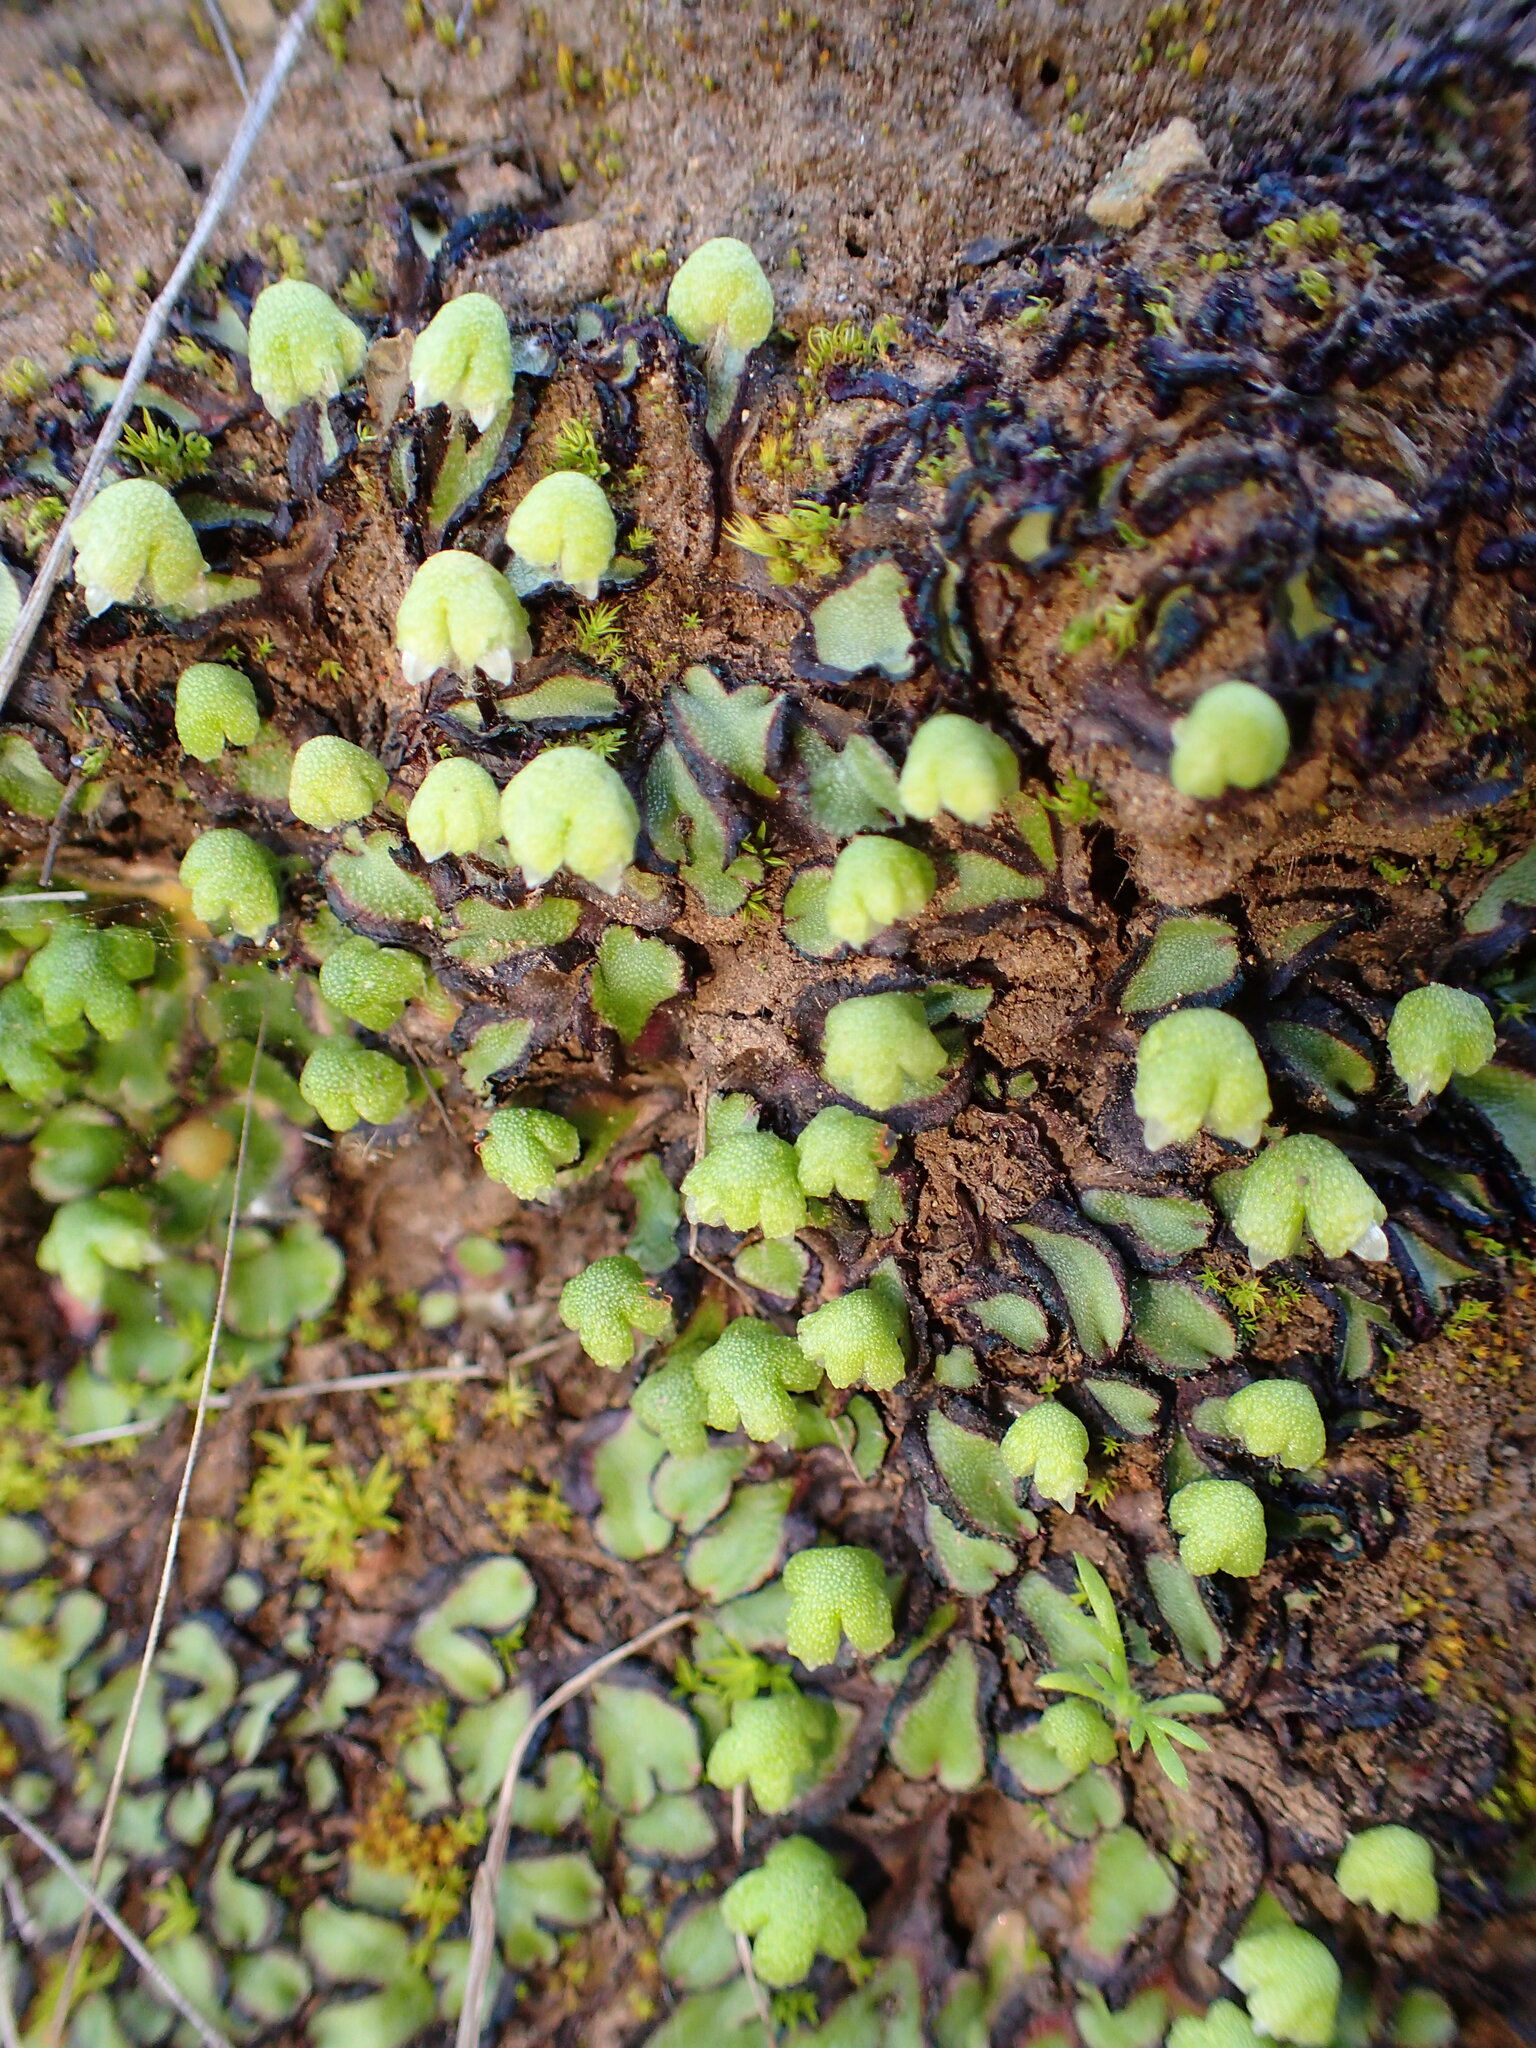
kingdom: Plantae
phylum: Marchantiophyta
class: Marchantiopsida
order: Marchantiales
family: Aytoniaceae
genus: Asterella
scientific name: Asterella californica
